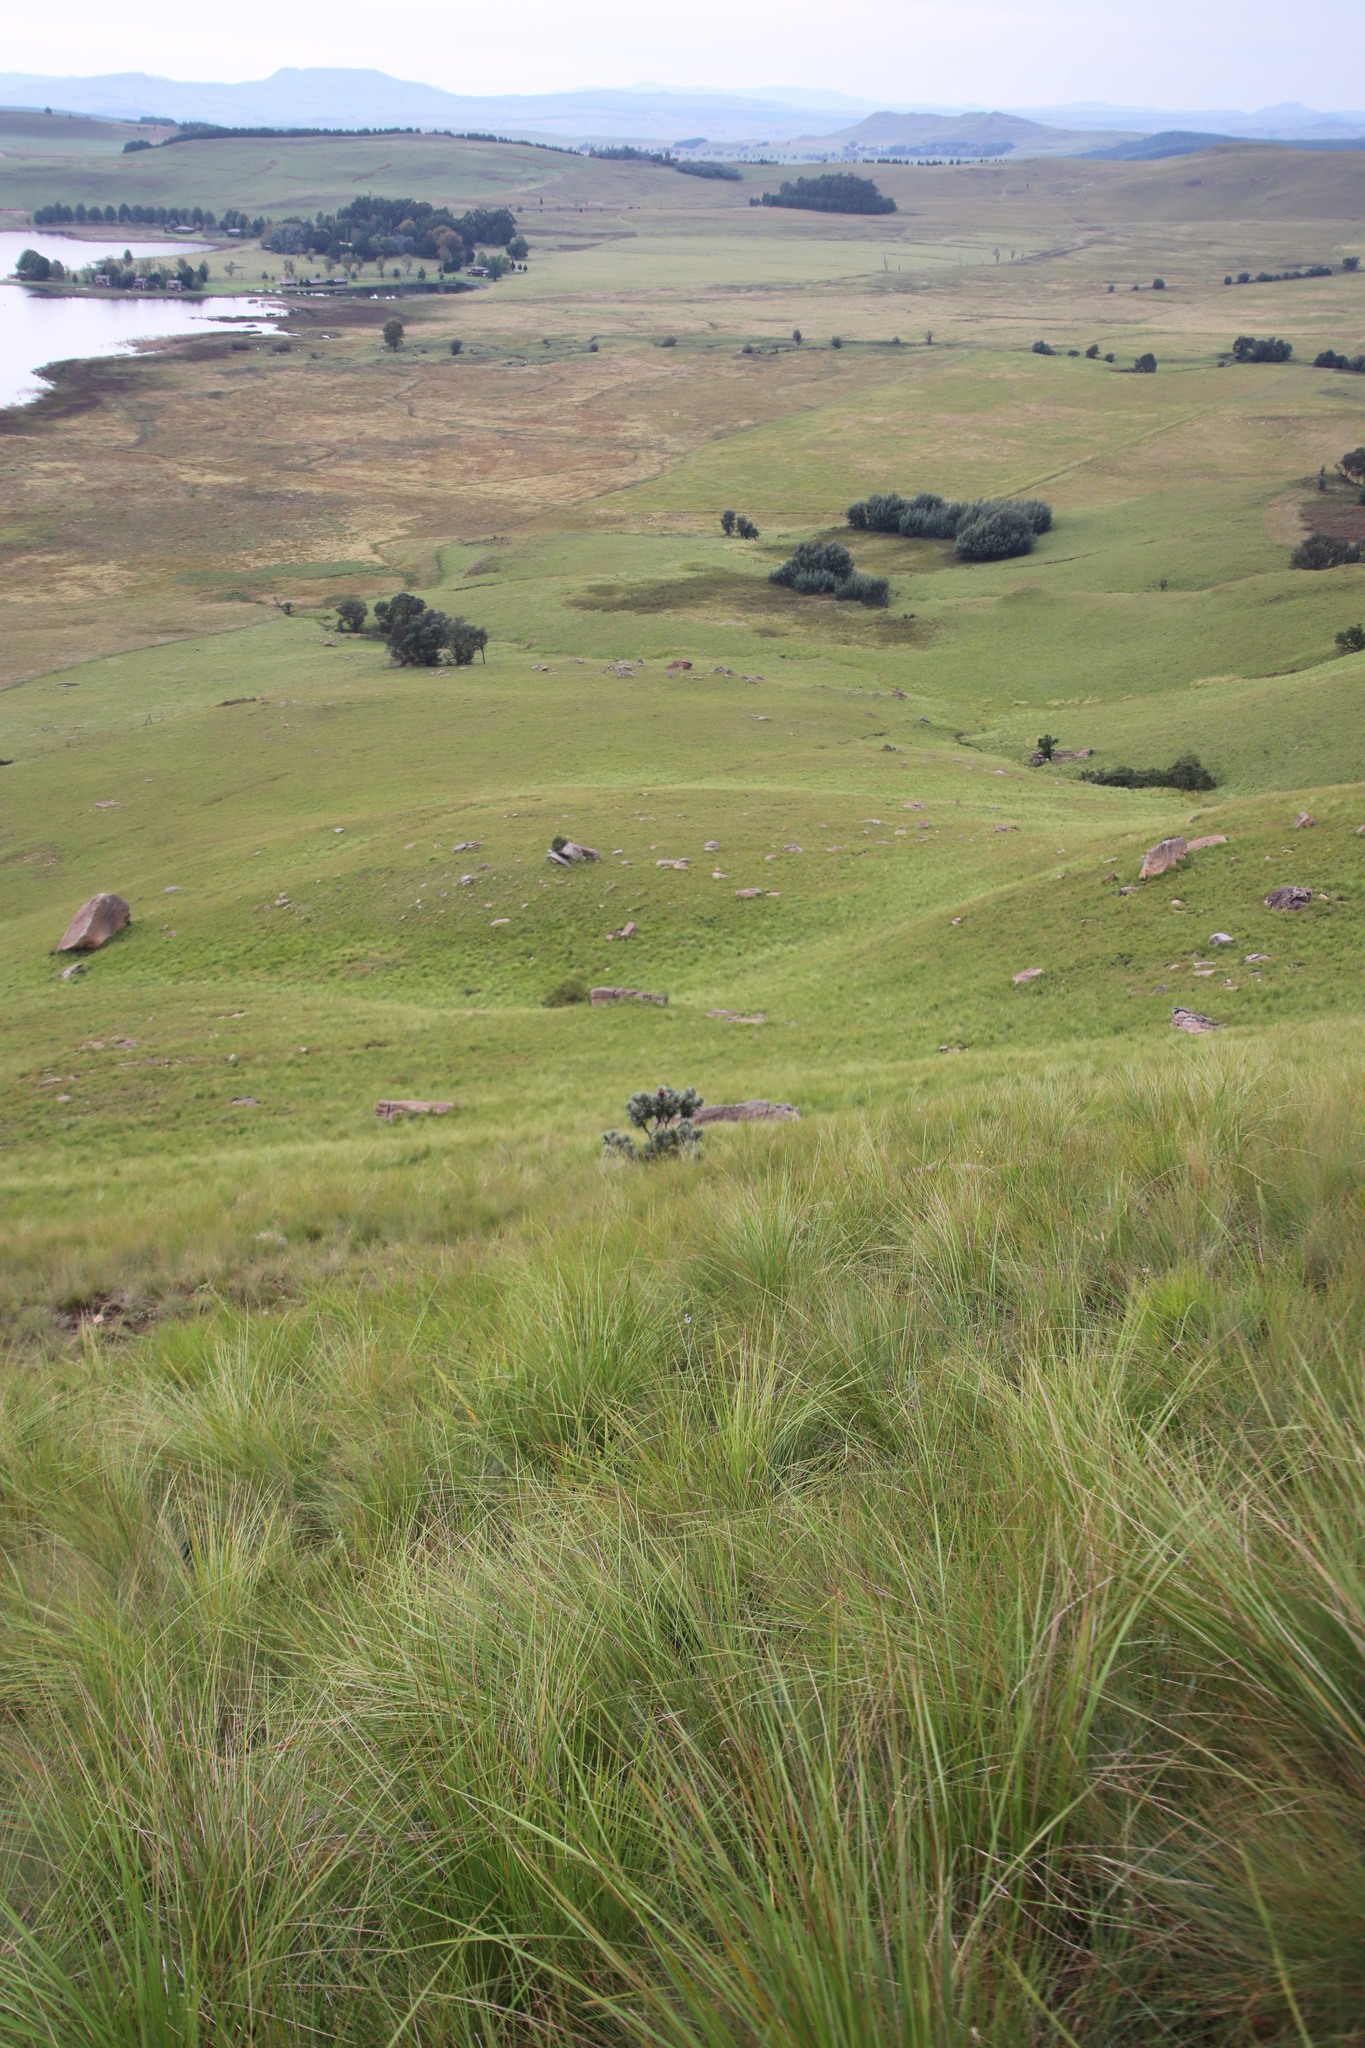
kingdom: Plantae
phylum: Tracheophyta
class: Magnoliopsida
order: Proteales
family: Proteaceae
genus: Protea
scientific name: Protea roupelliae
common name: Silver sugarbush
